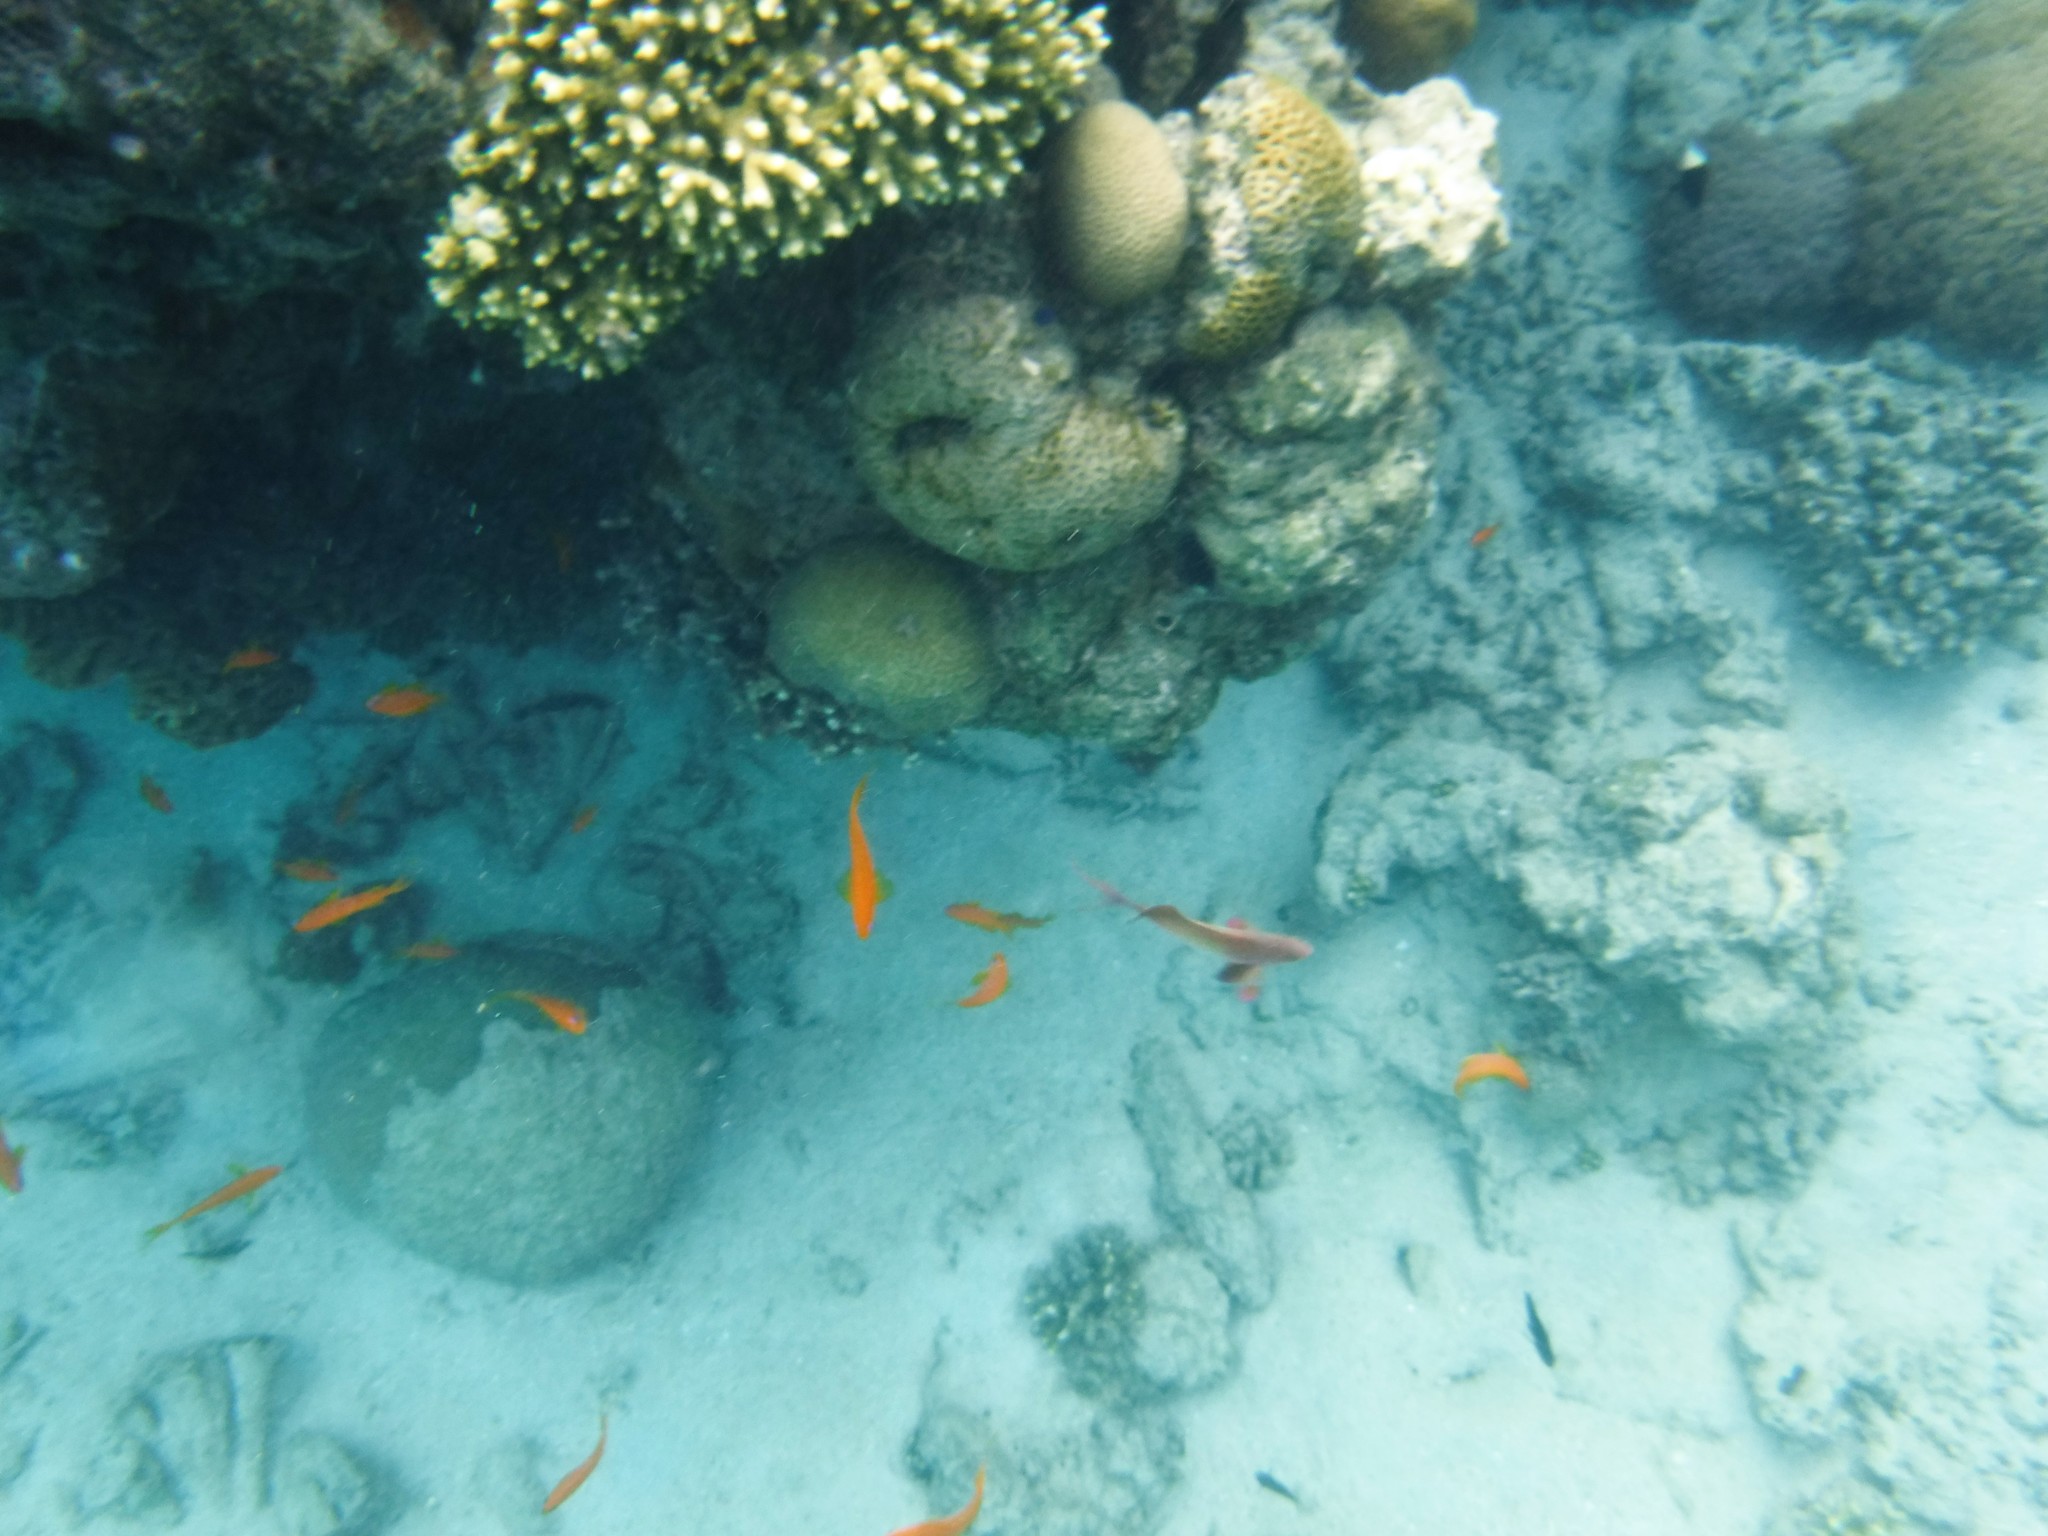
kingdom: Animalia
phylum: Chordata
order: Perciformes
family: Serranidae
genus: Pseudanthias
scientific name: Pseudanthias squamipinnis
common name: Scalefin anthias
